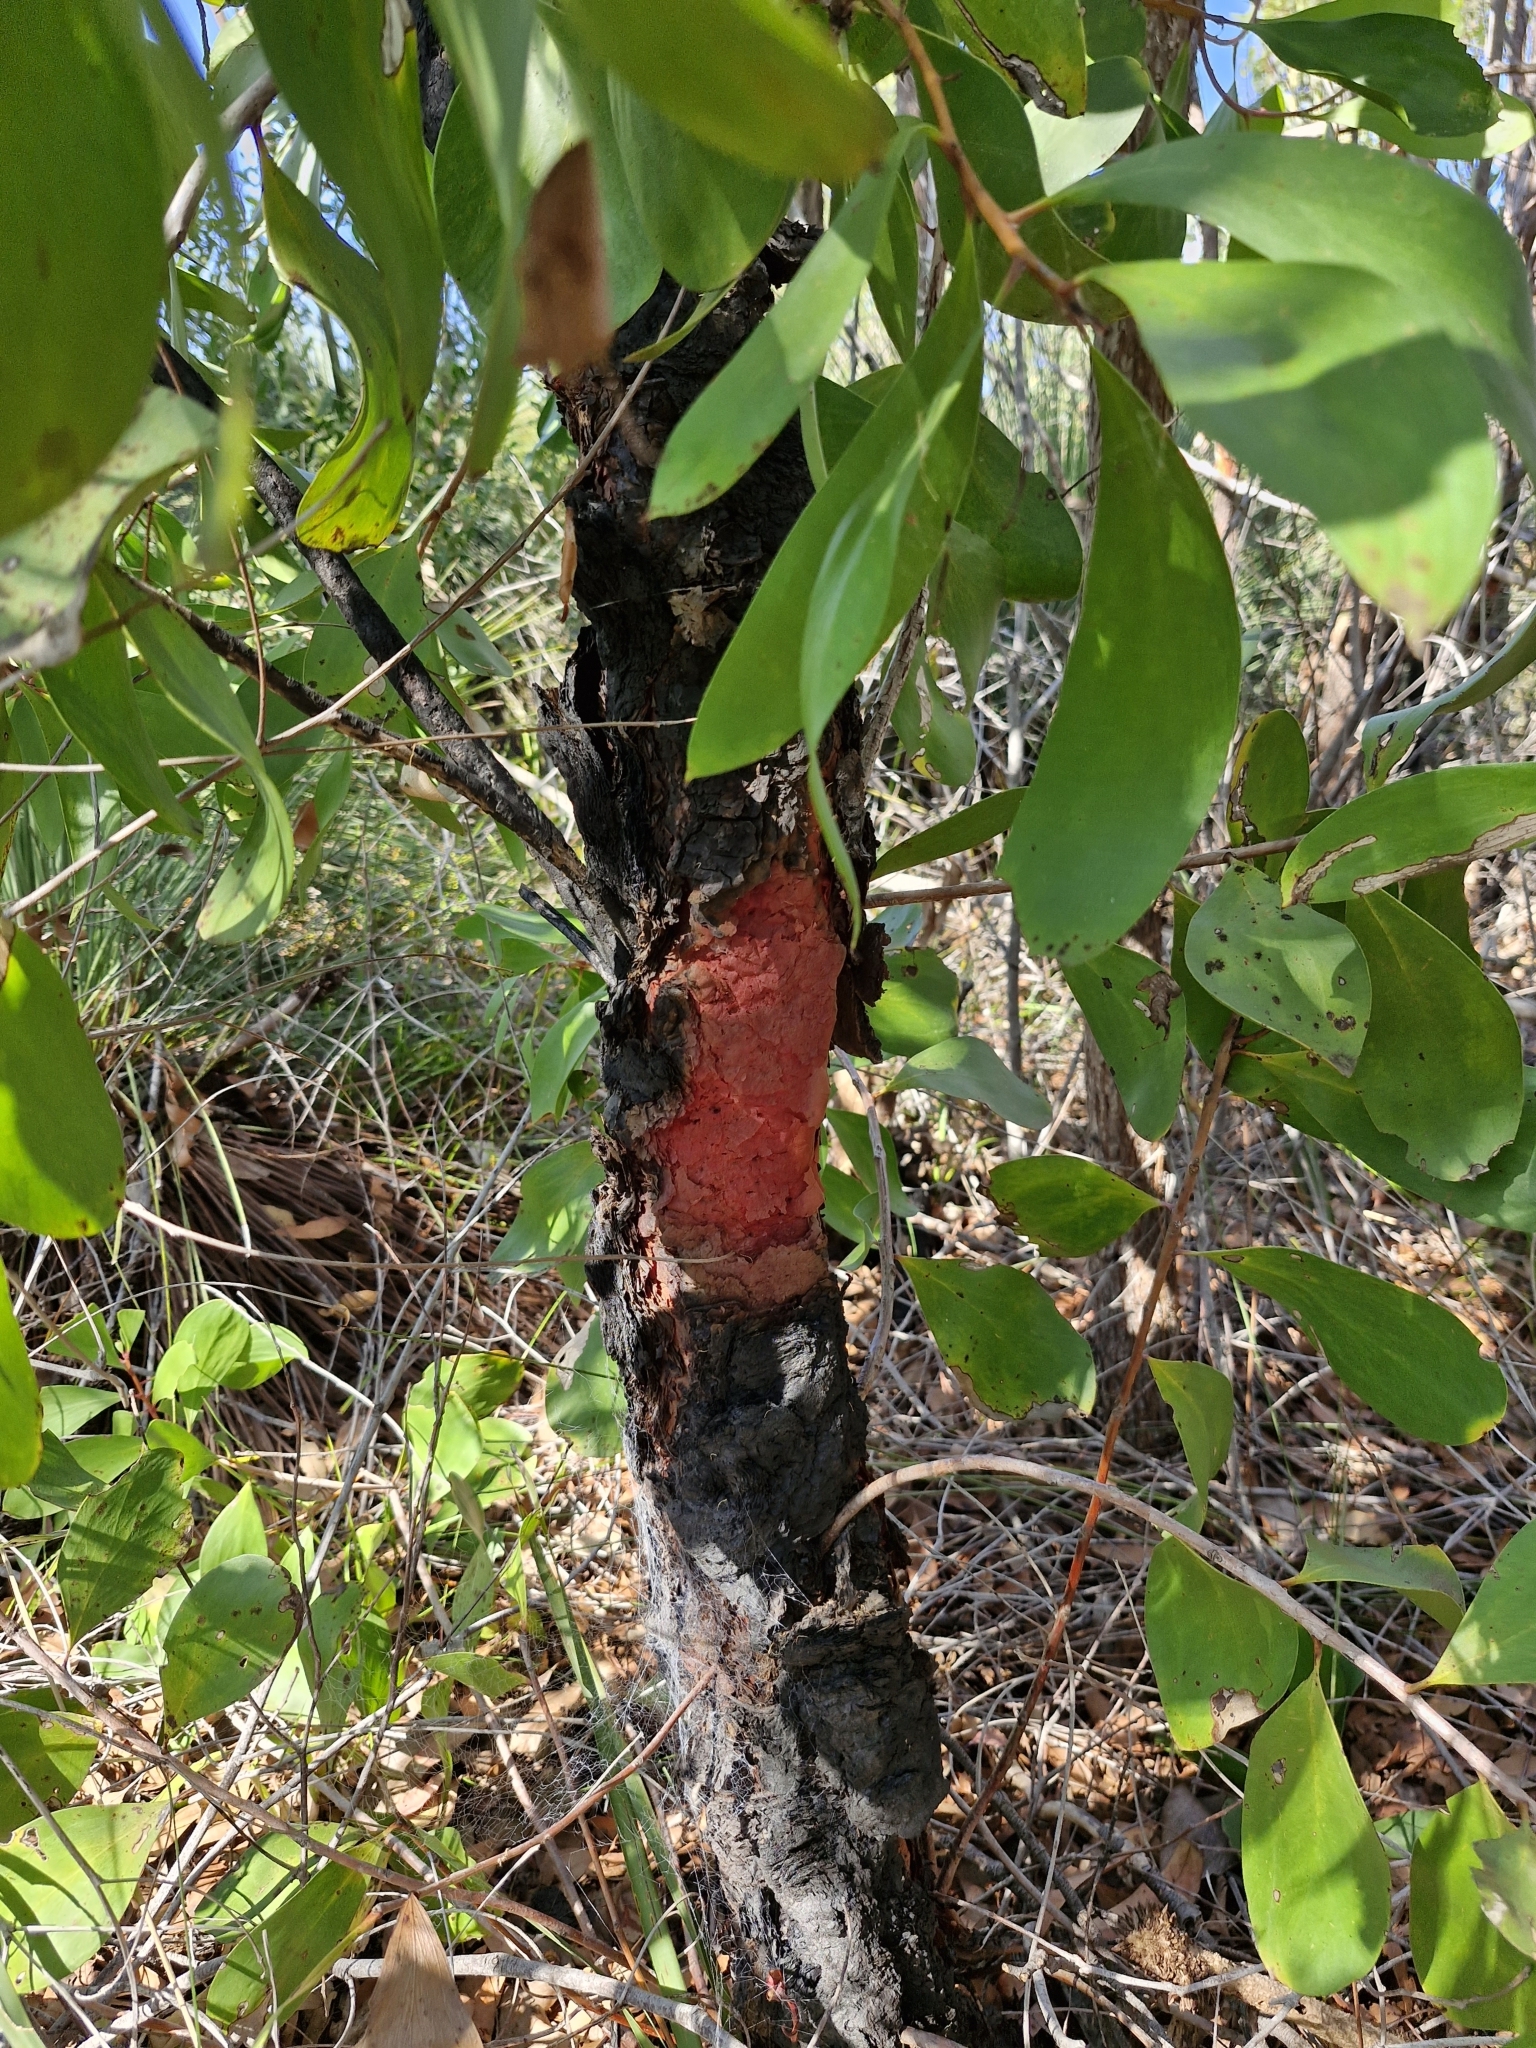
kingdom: Plantae
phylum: Tracheophyta
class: Magnoliopsida
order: Proteales
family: Proteaceae
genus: Persoonia
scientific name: Persoonia levis
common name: Smooth geebung
